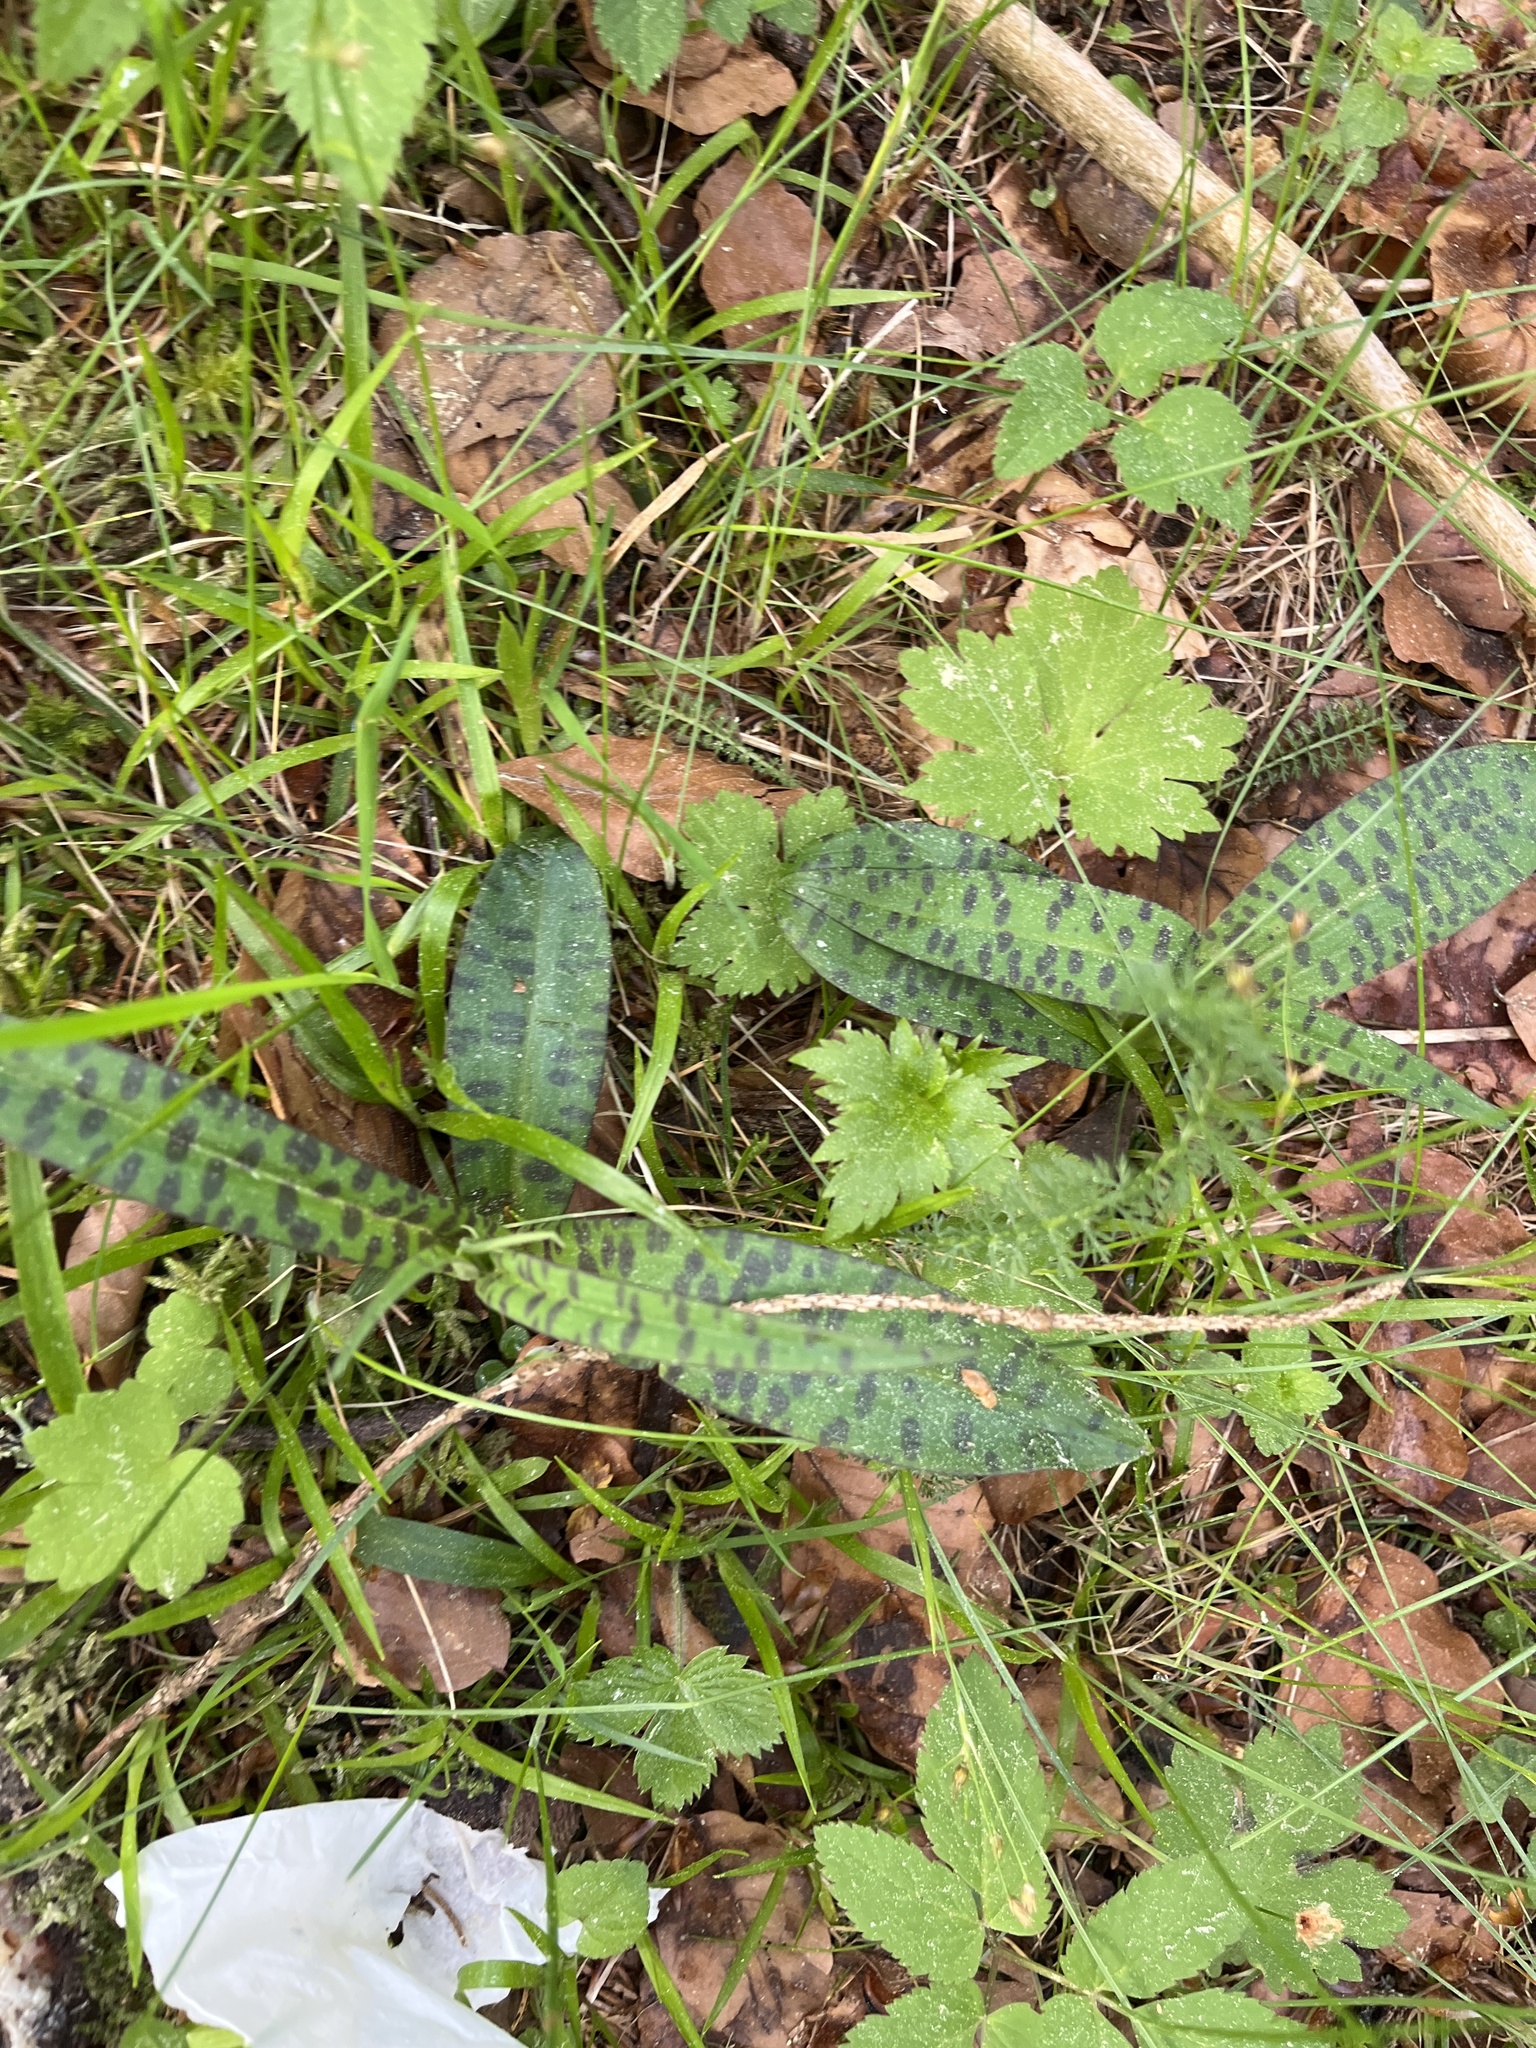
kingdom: Plantae
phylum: Tracheophyta
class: Liliopsida
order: Asparagales
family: Orchidaceae
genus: Dactylorhiza
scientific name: Dactylorhiza maculata
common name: Heath spotted-orchid
